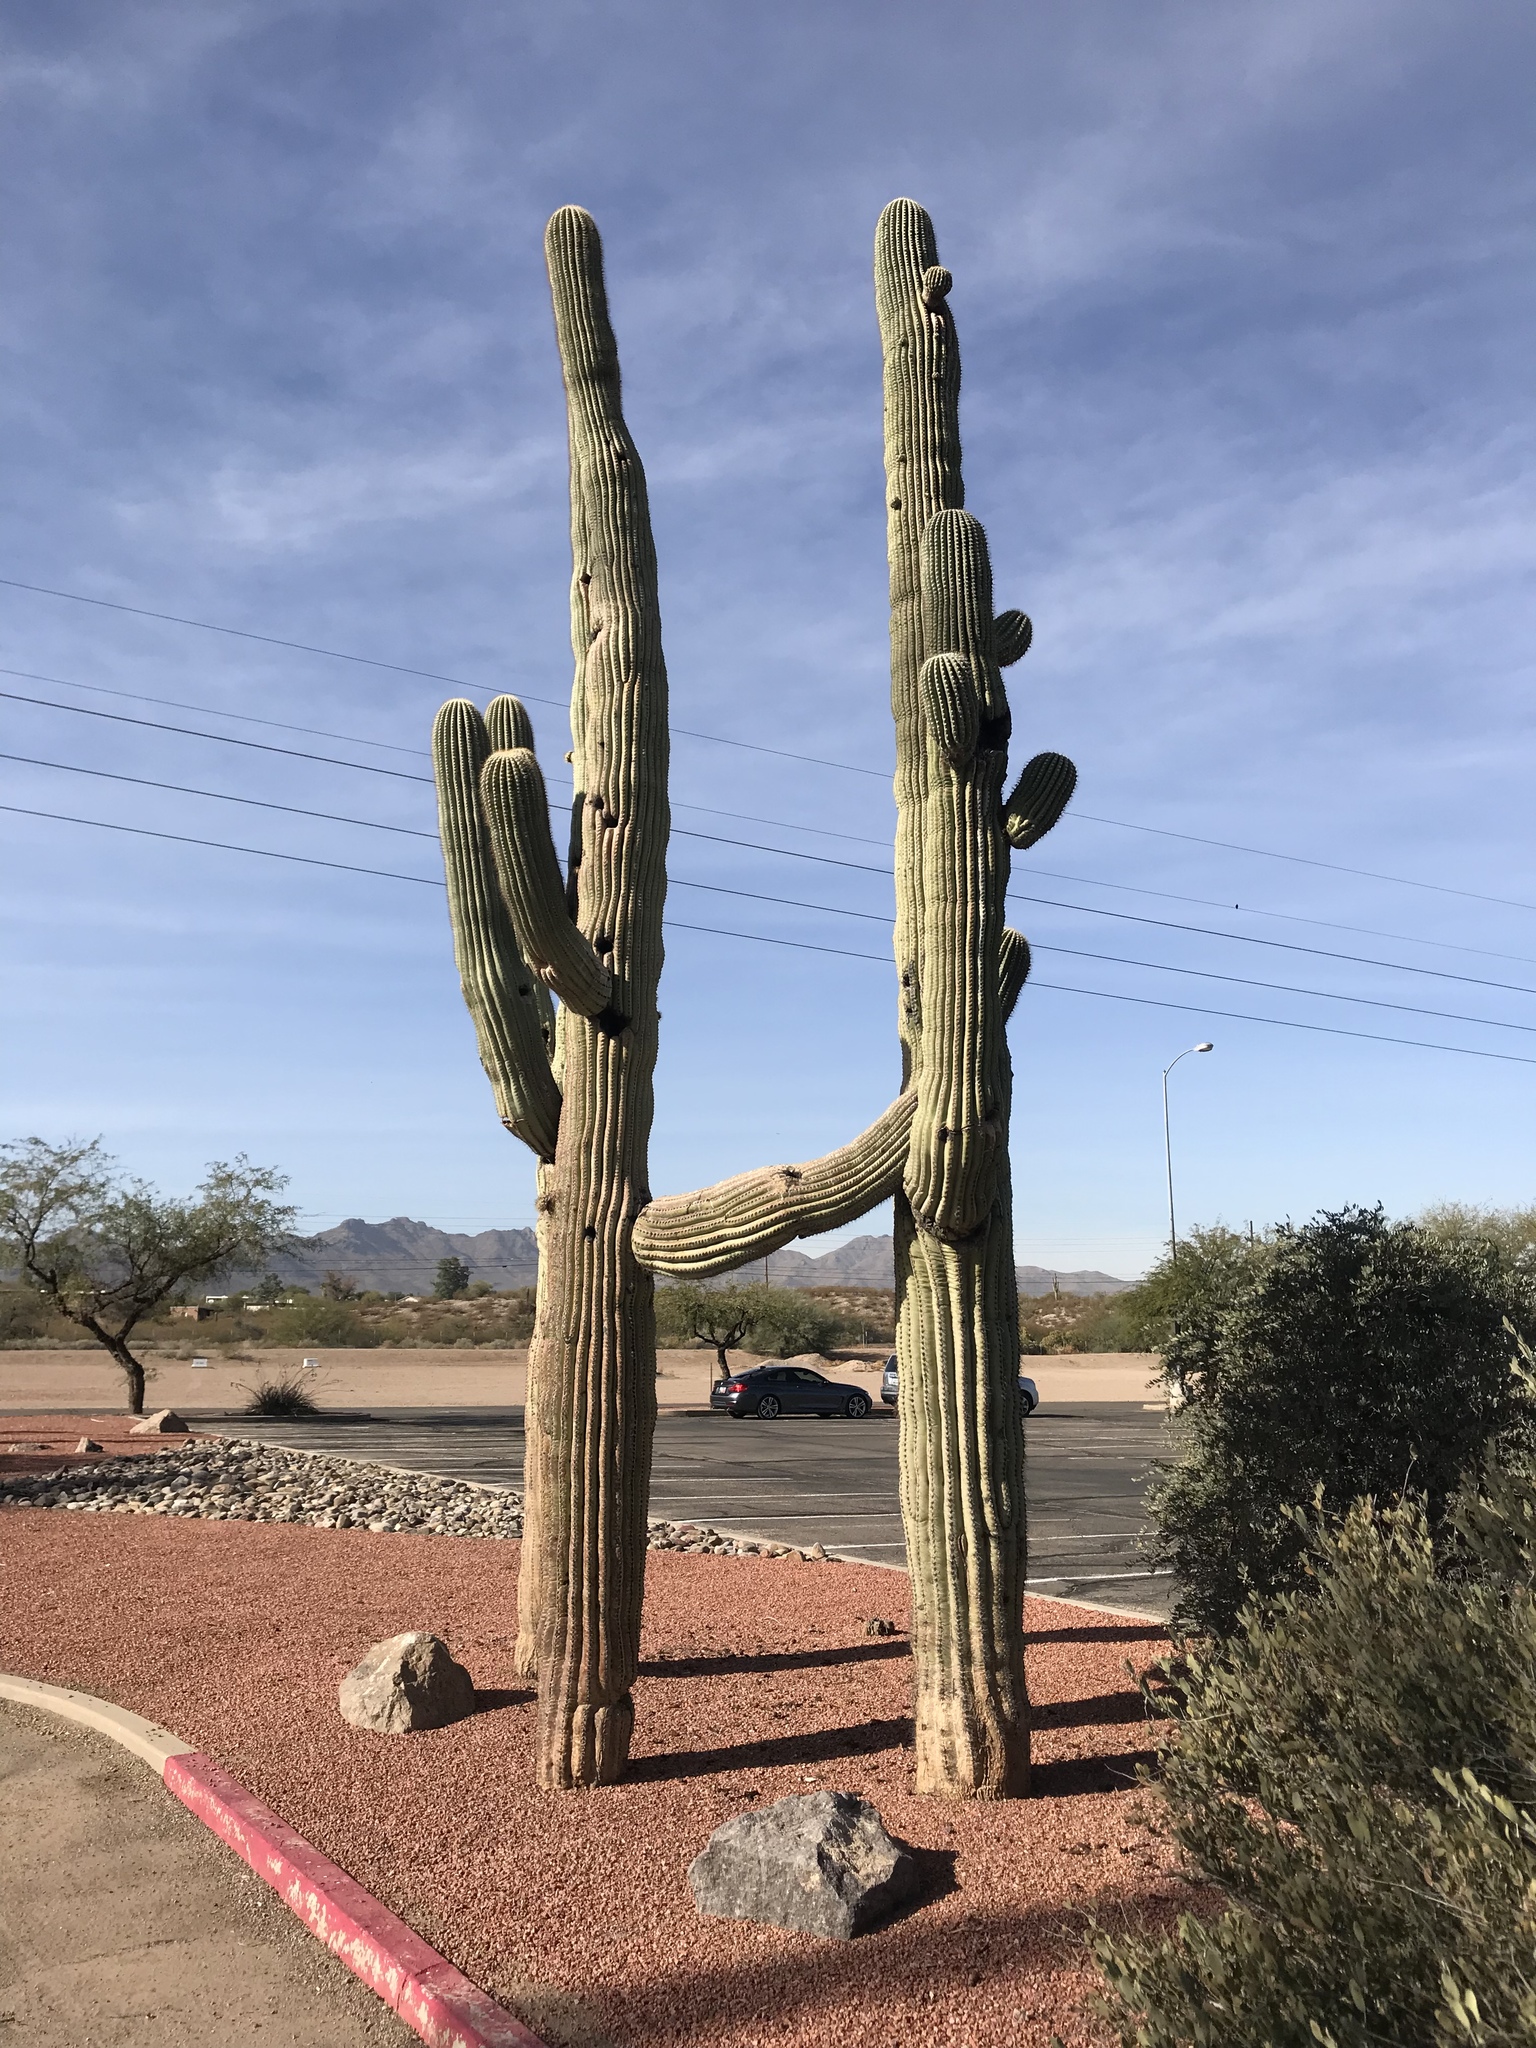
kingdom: Plantae
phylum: Tracheophyta
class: Magnoliopsida
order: Caryophyllales
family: Cactaceae
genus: Carnegiea
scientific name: Carnegiea gigantea
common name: Saguaro
